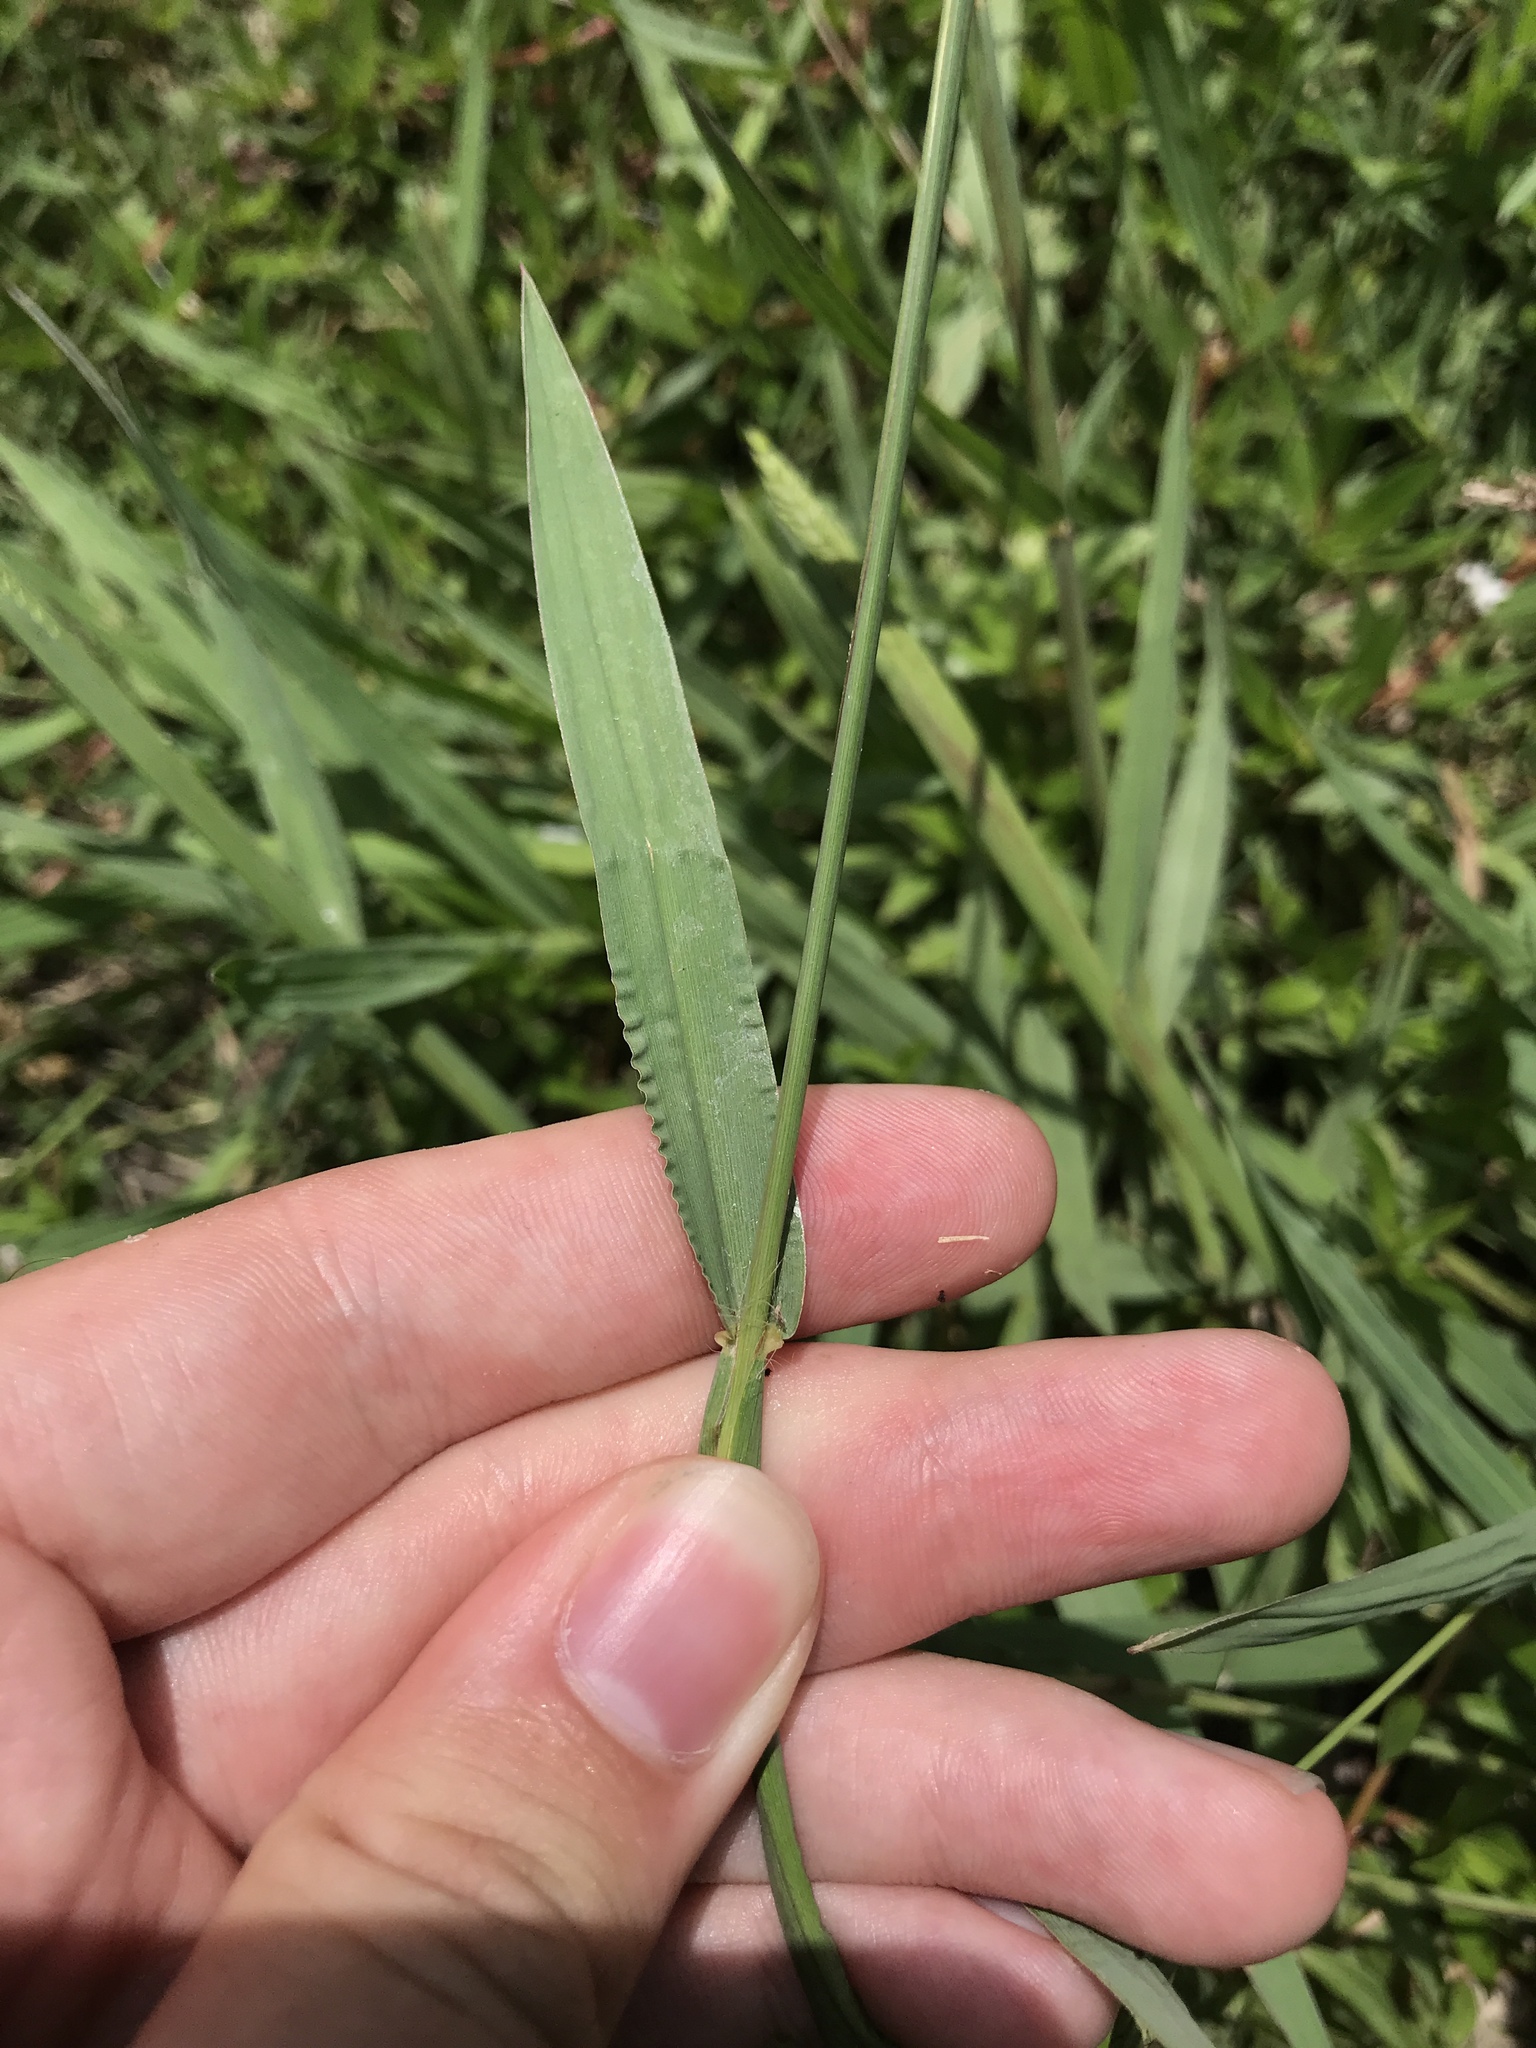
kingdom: Plantae
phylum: Tracheophyta
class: Liliopsida
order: Poales
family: Poaceae
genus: Paspalum
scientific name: Paspalum dilatatum
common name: Dallisgrass
